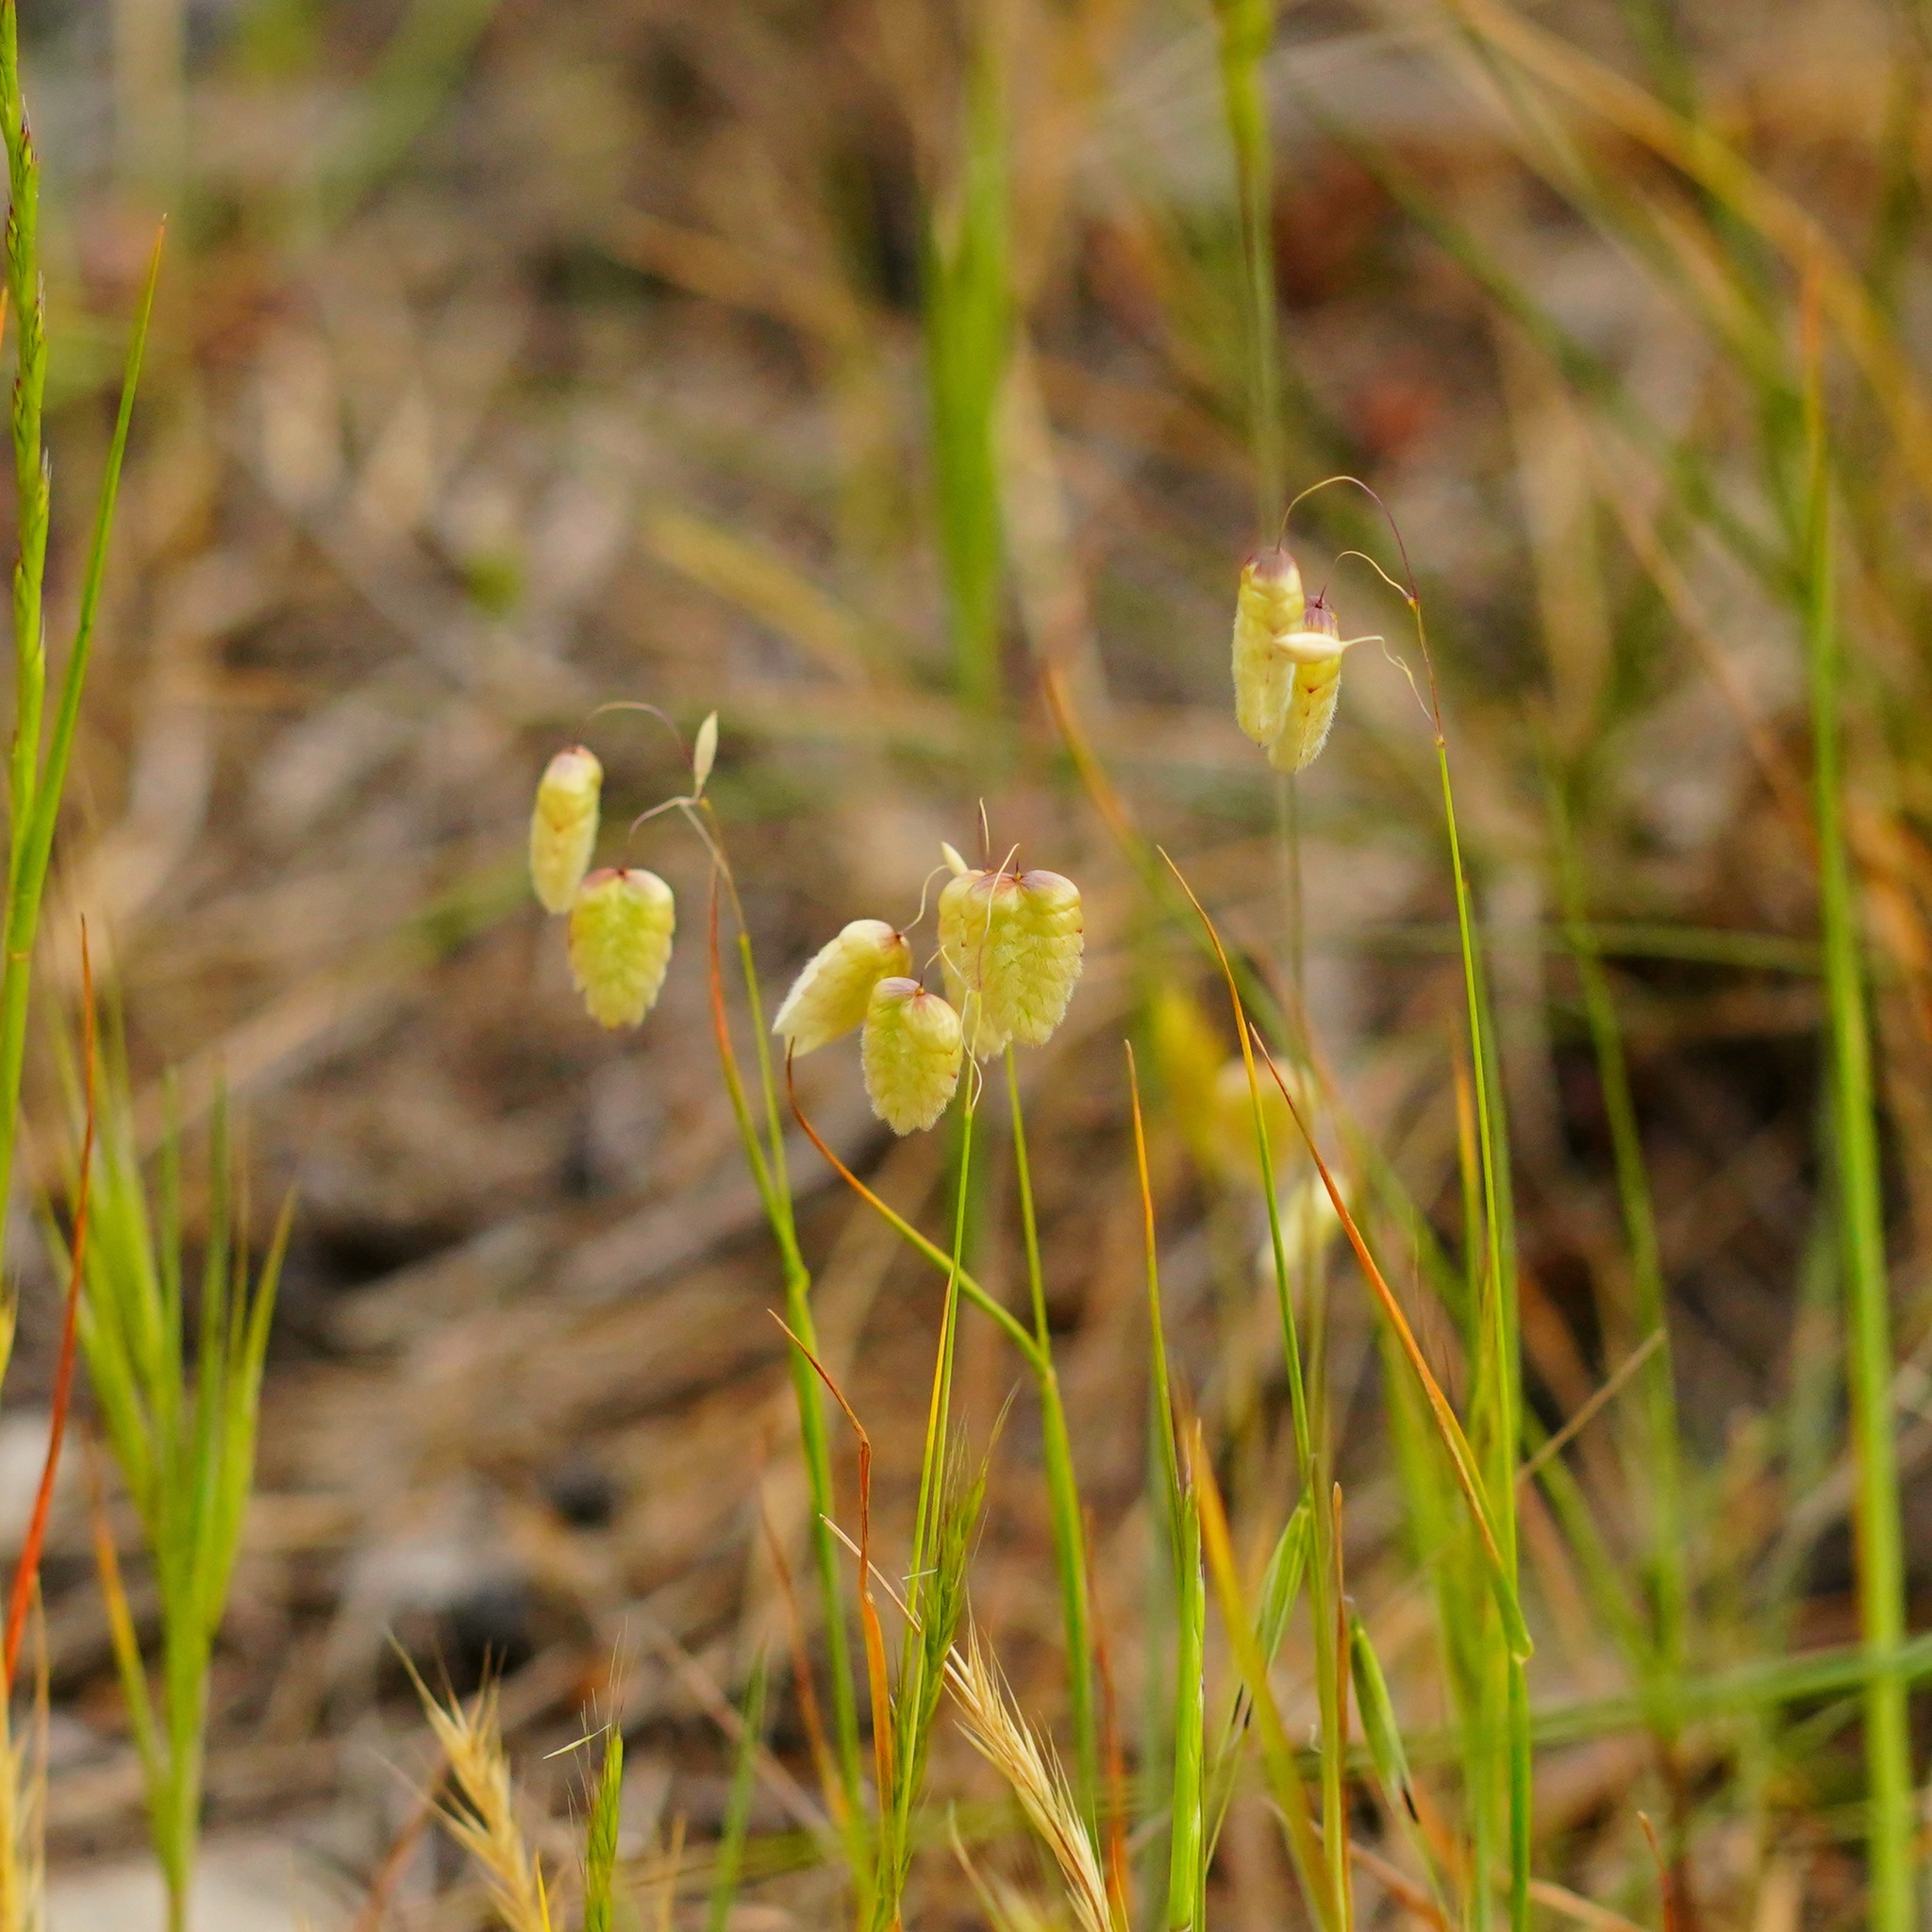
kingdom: Plantae
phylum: Tracheophyta
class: Liliopsida
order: Poales
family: Poaceae
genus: Briza
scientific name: Briza maxima
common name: Big quakinggrass
